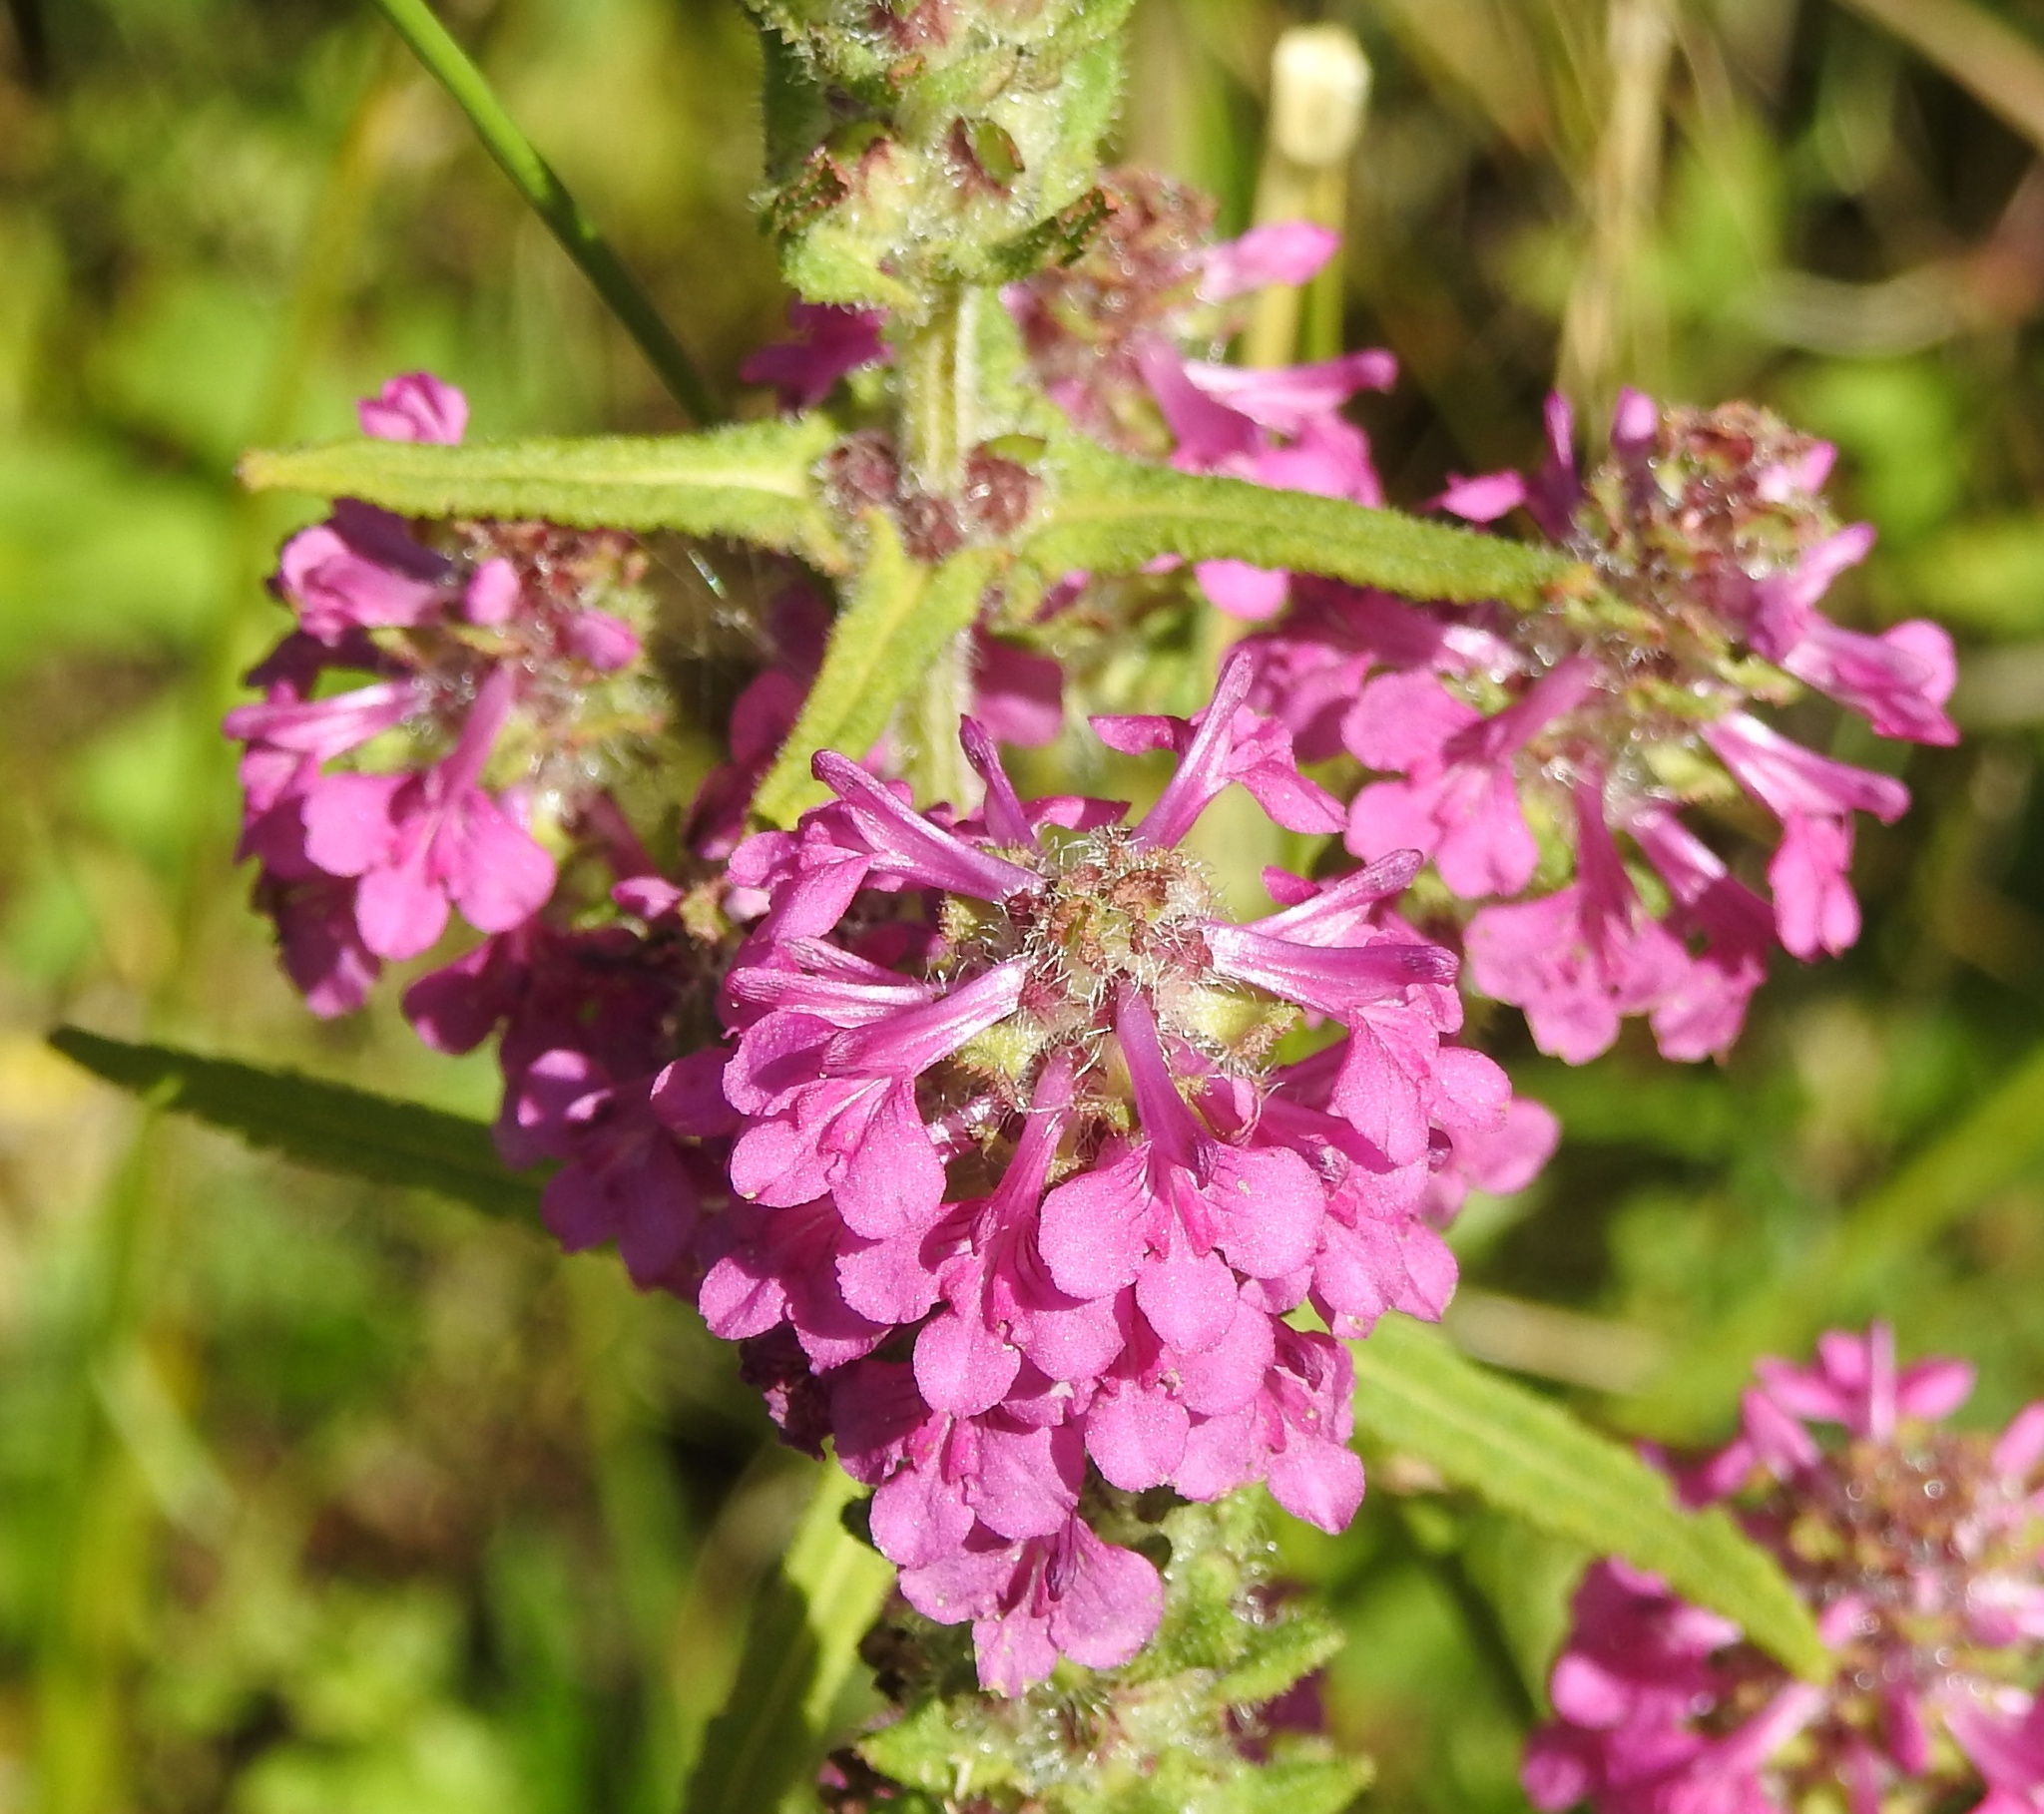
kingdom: Plantae
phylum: Tracheophyta
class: Magnoliopsida
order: Lamiales
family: Orobanchaceae
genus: Pedicularis
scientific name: Pedicularis spicata
